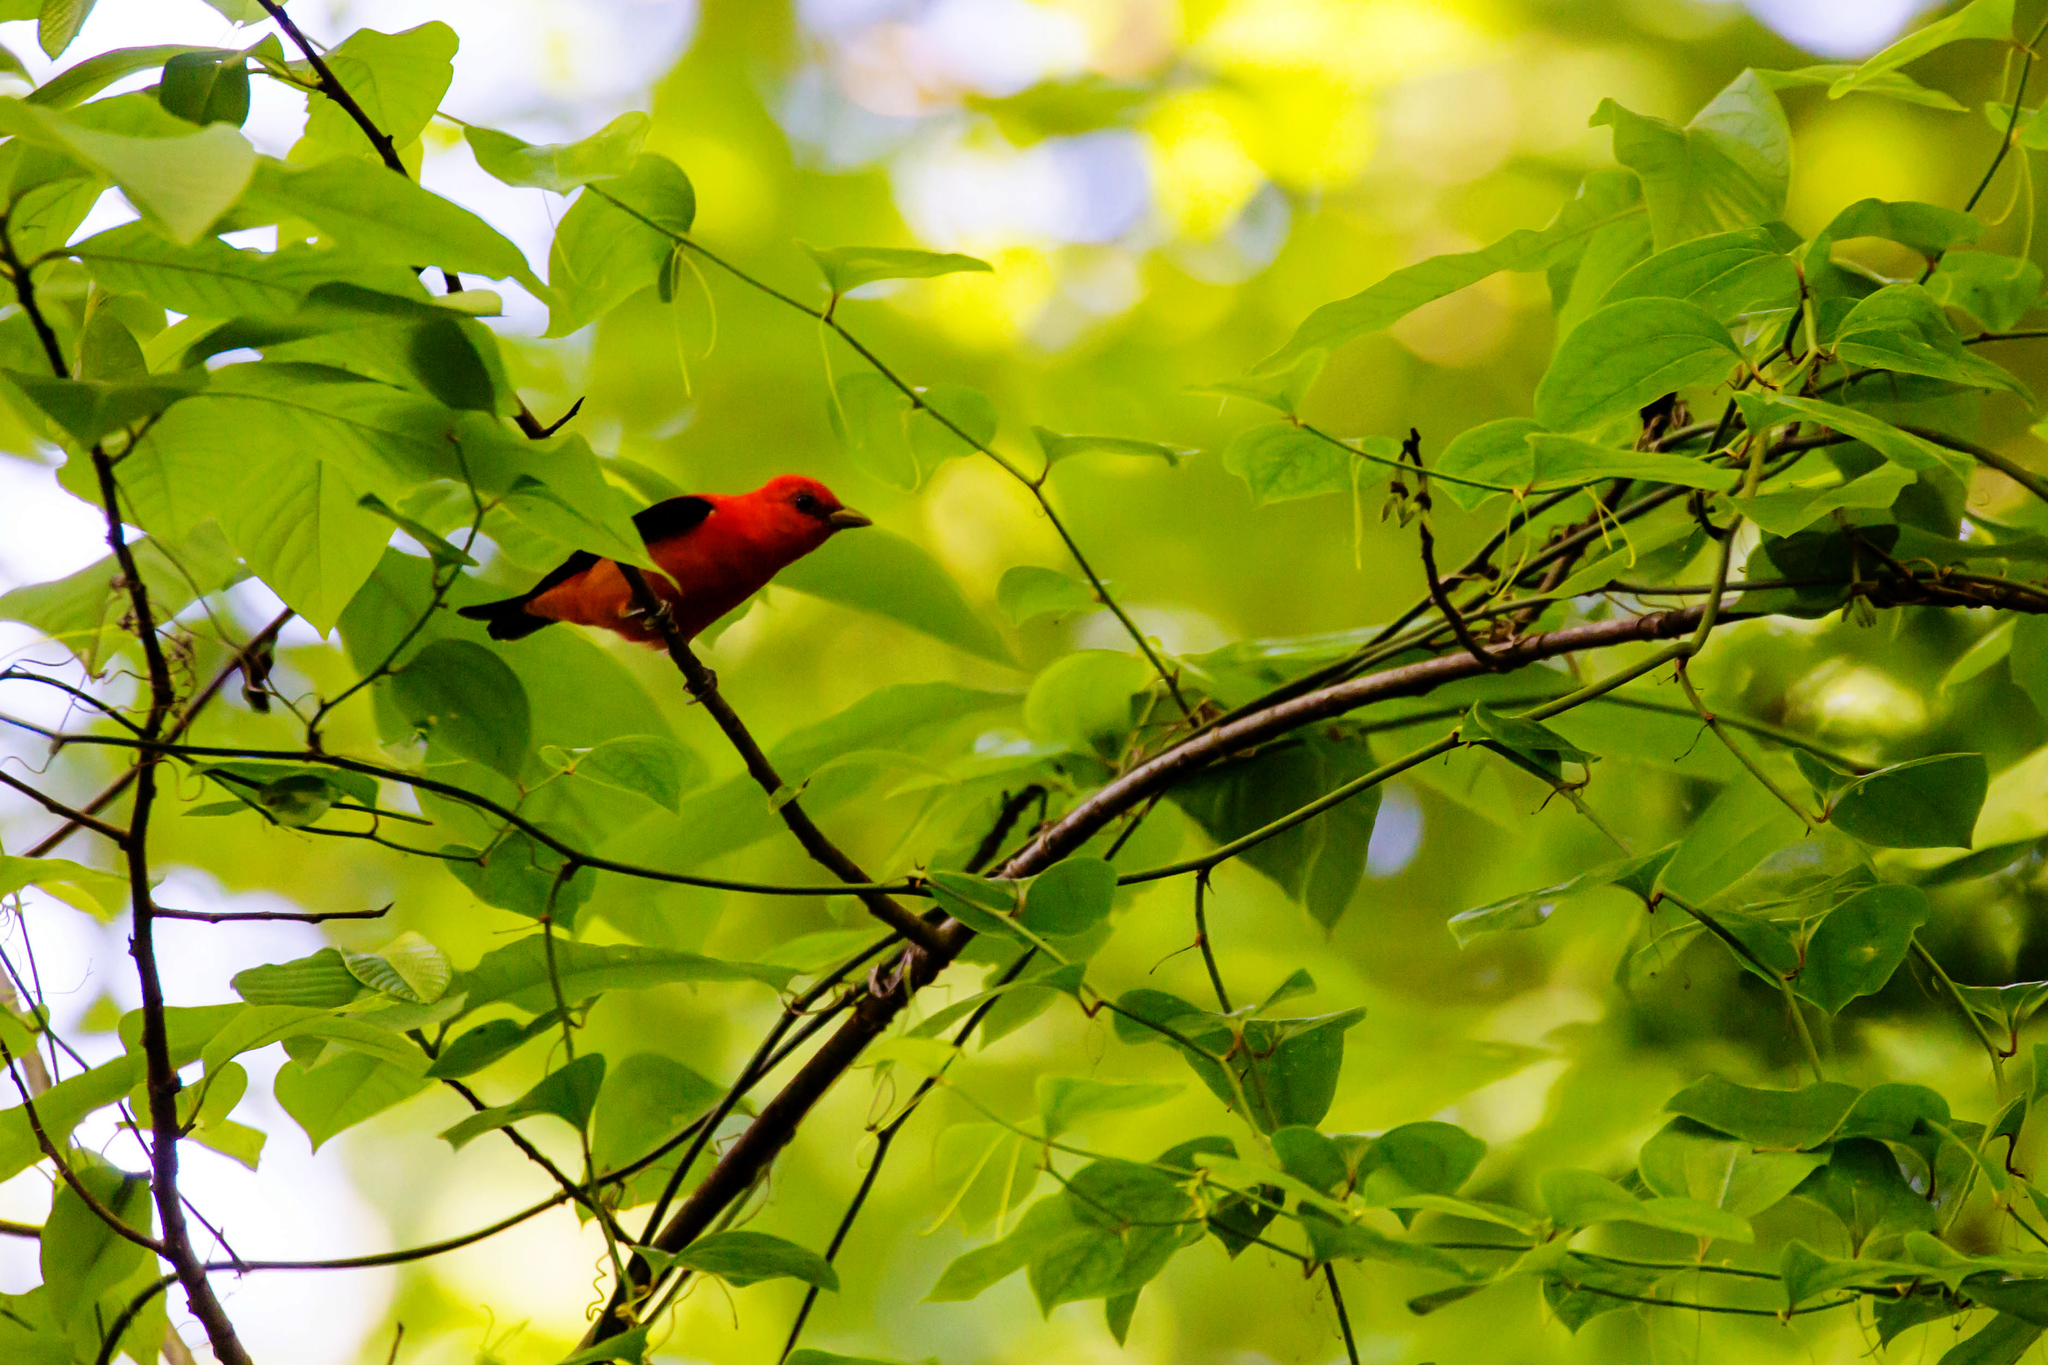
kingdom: Animalia
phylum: Chordata
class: Aves
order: Passeriformes
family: Cardinalidae
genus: Piranga
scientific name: Piranga olivacea
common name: Scarlet tanager
